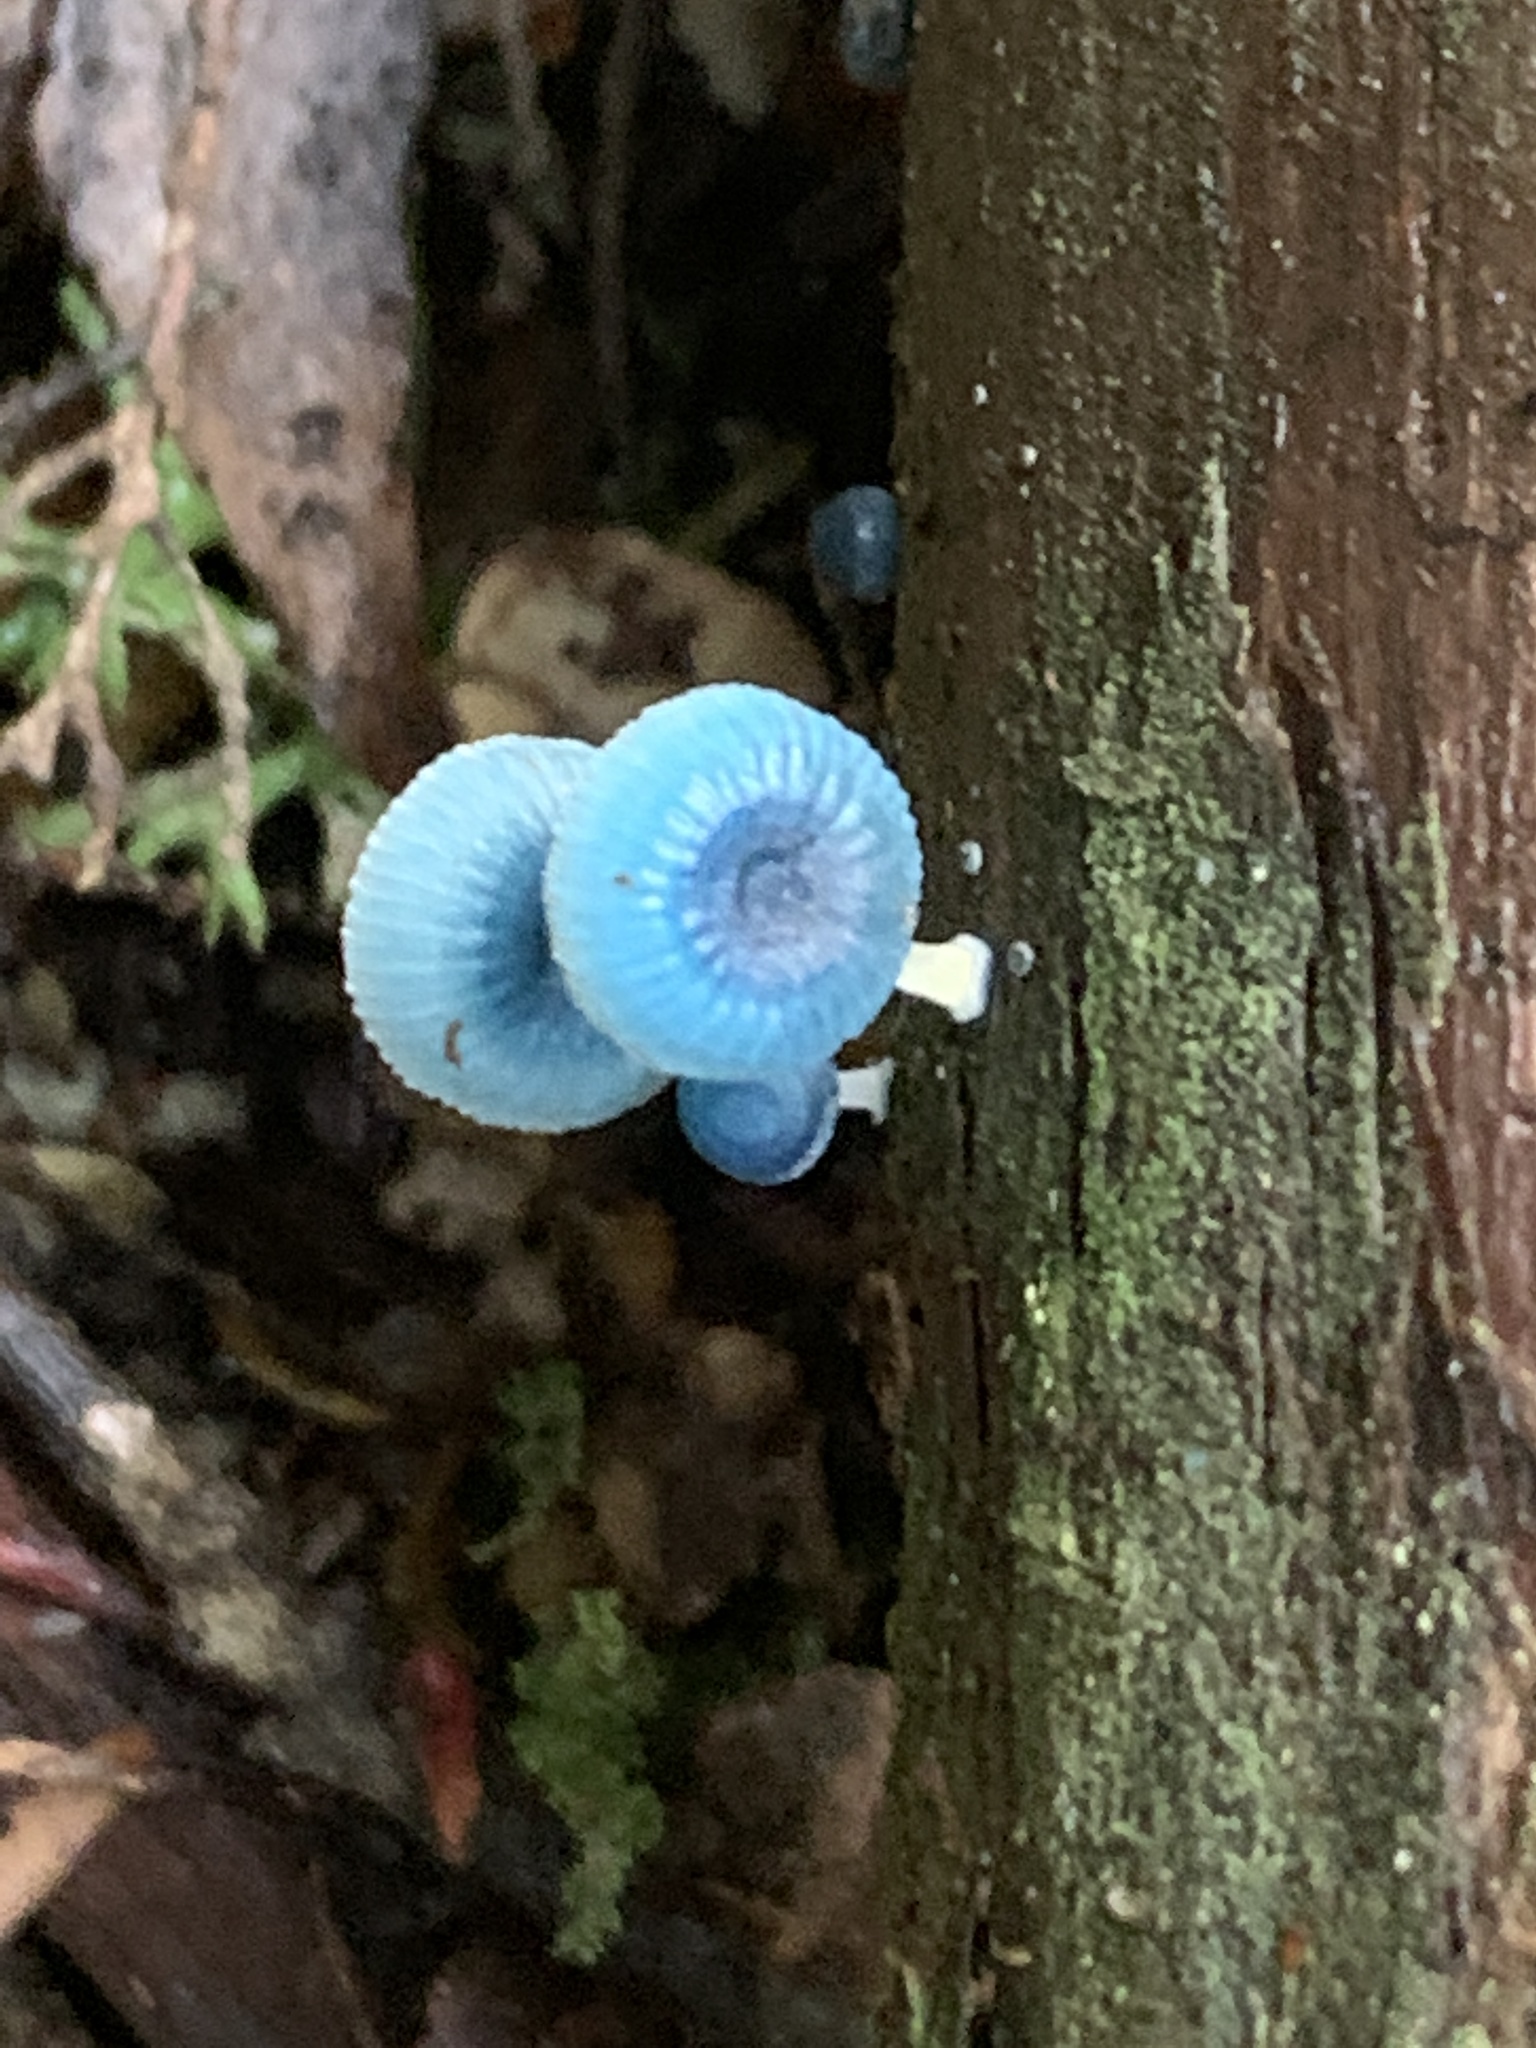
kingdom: Fungi
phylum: Basidiomycota
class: Agaricomycetes
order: Agaricales
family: Mycenaceae
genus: Mycena
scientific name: Mycena interrupta
